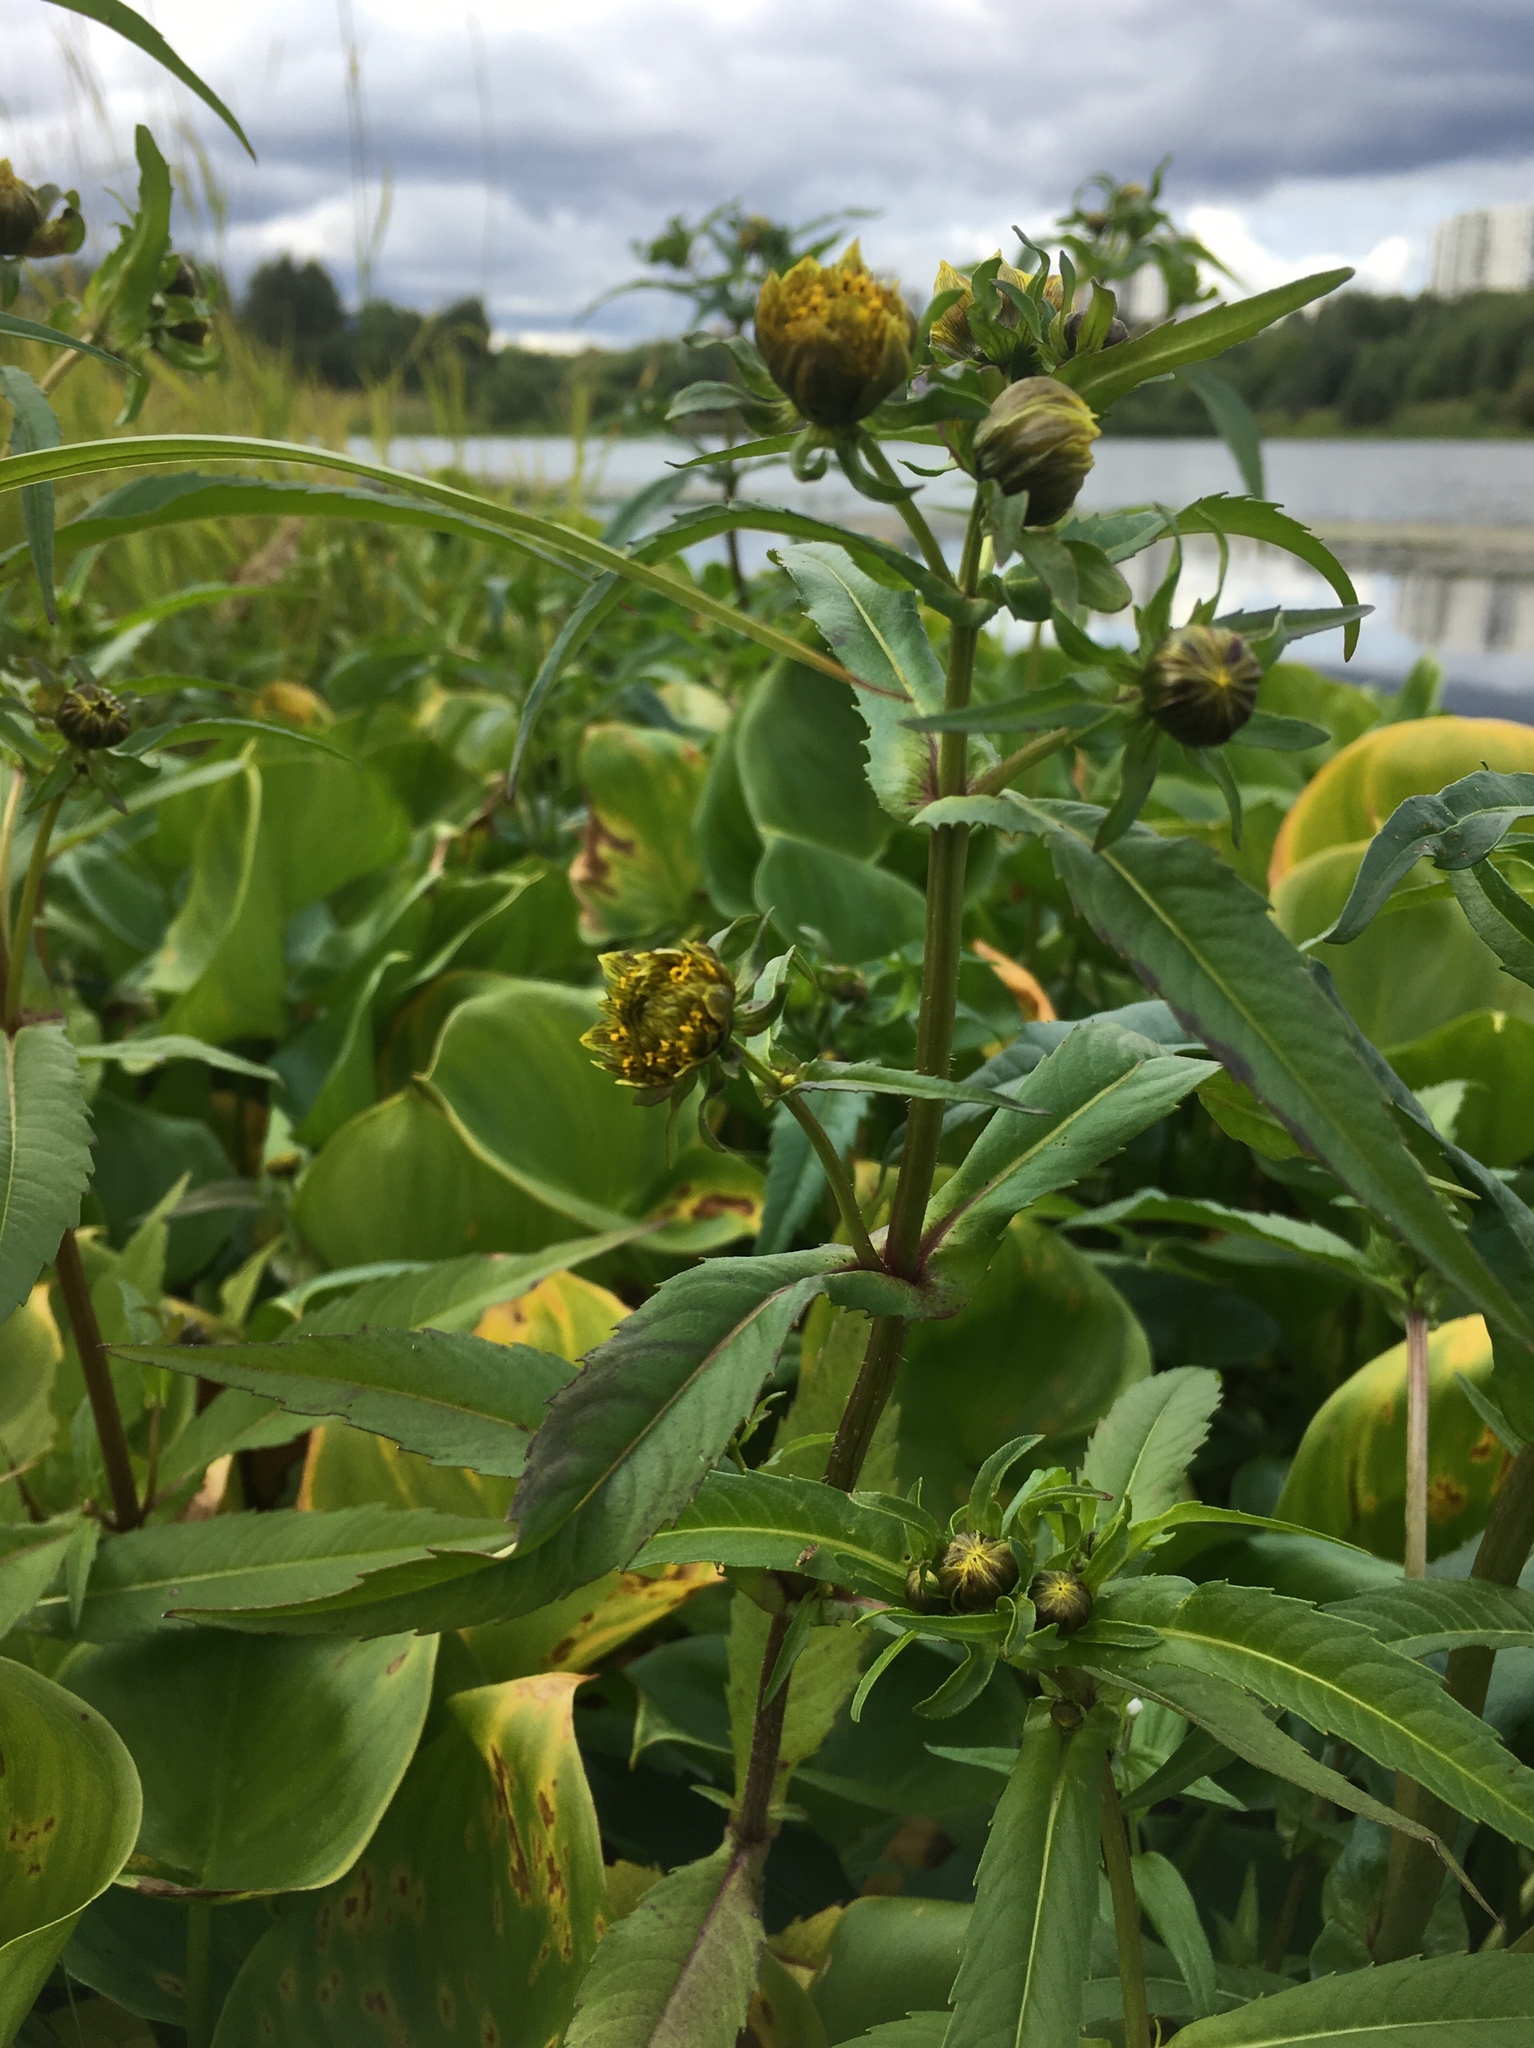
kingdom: Plantae
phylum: Tracheophyta
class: Magnoliopsida
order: Asterales
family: Asteraceae
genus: Bidens
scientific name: Bidens cernua
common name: Nodding bur-marigold
